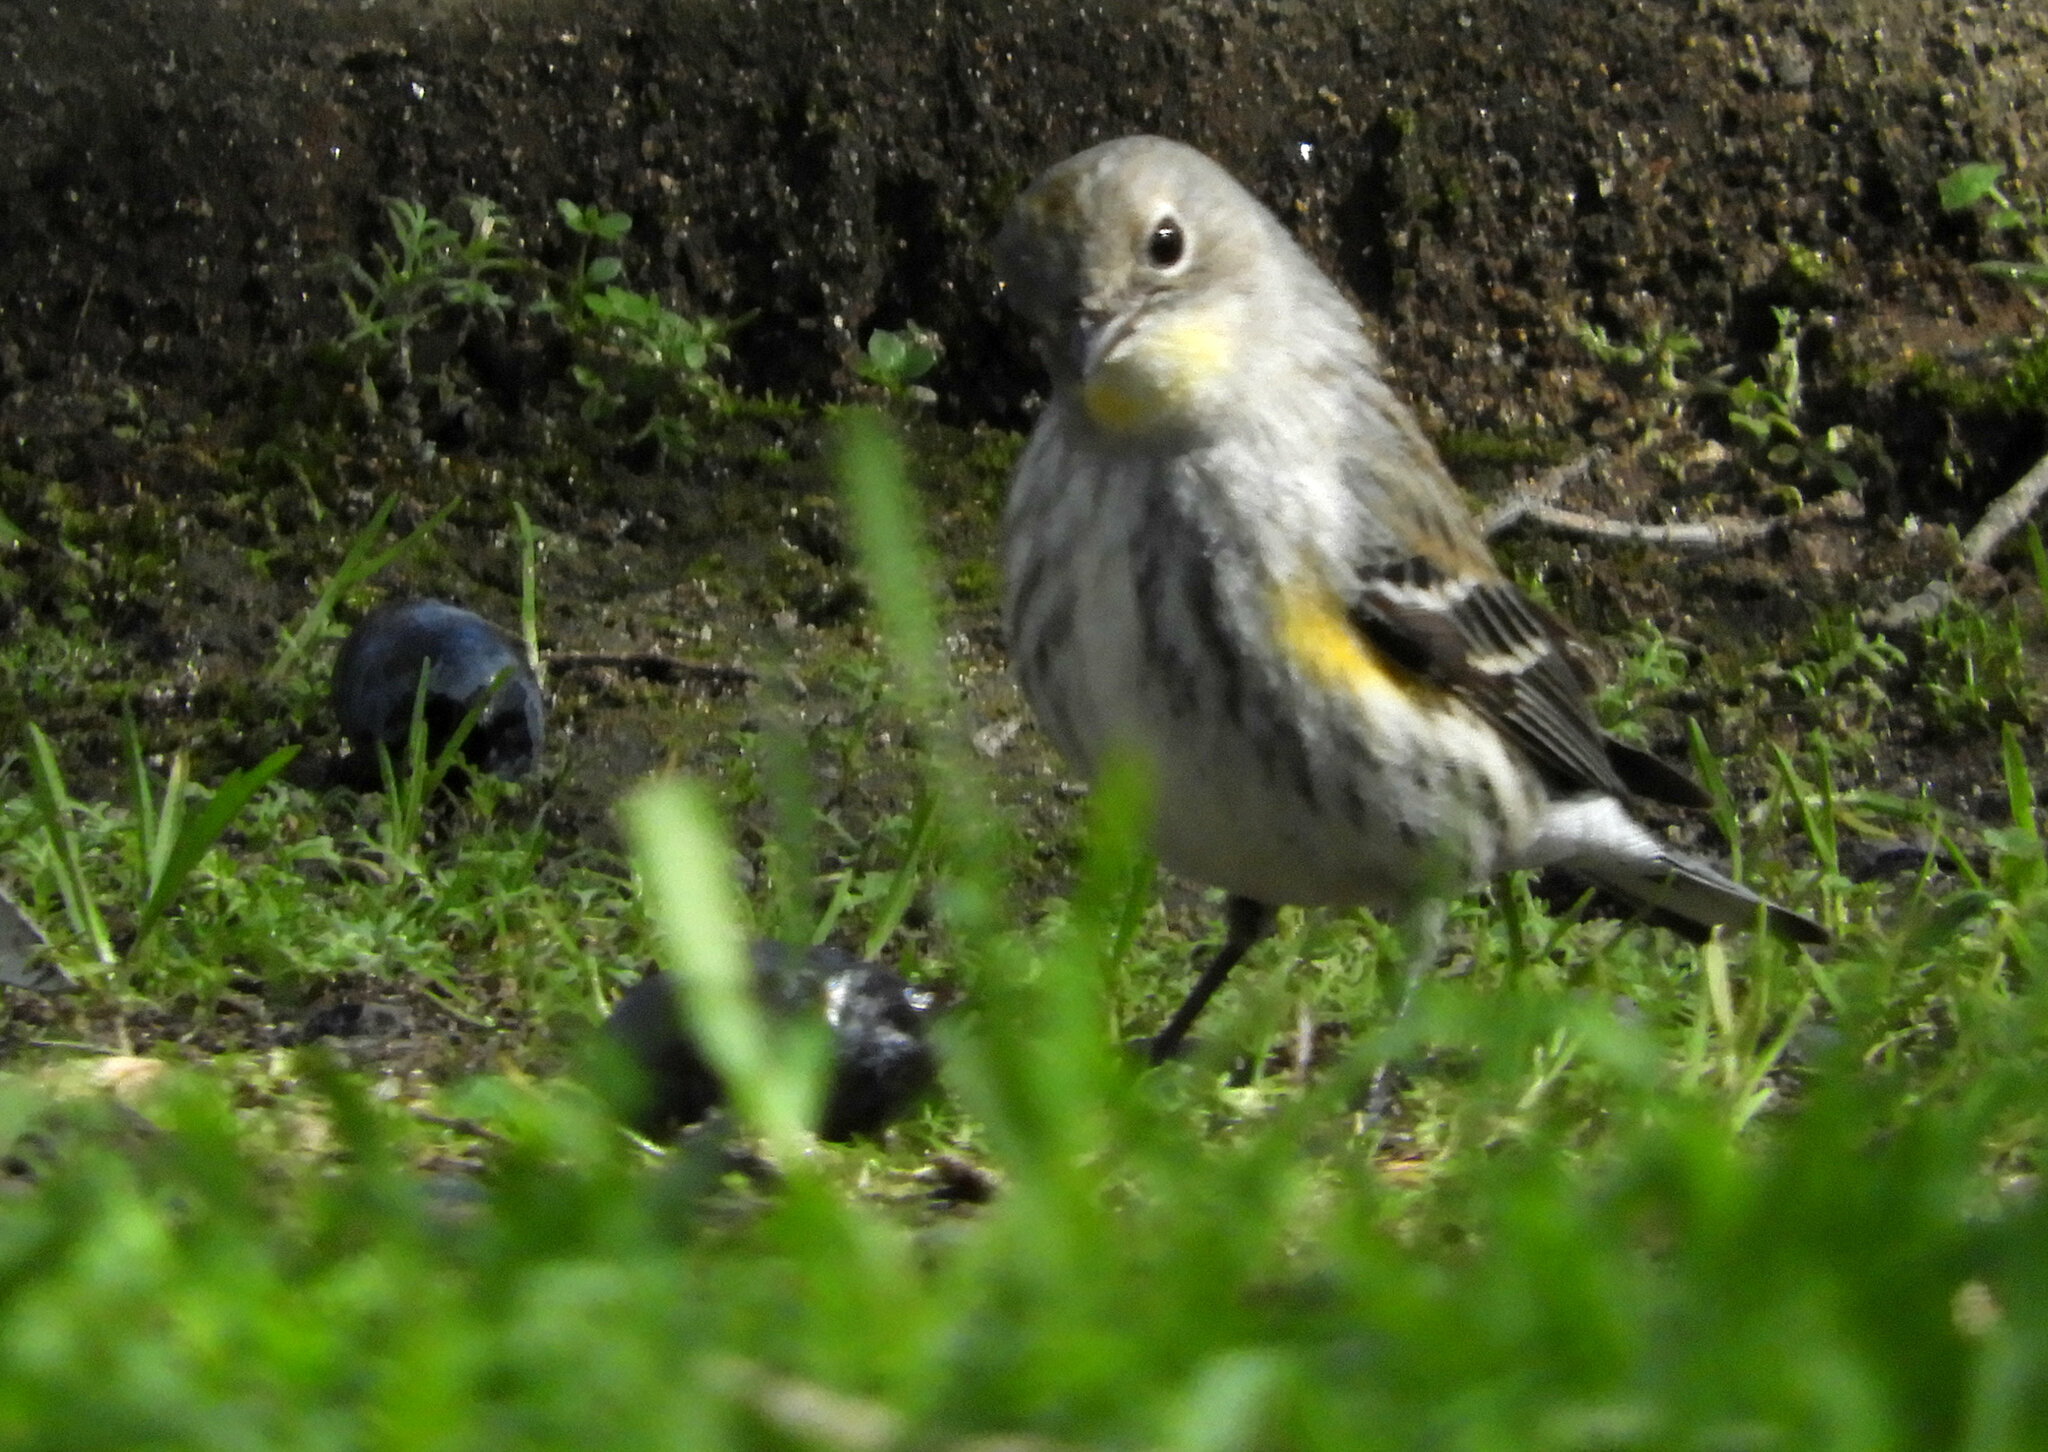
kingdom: Animalia
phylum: Chordata
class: Aves
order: Passeriformes
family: Parulidae
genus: Setophaga
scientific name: Setophaga auduboni
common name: Audubon's warbler
